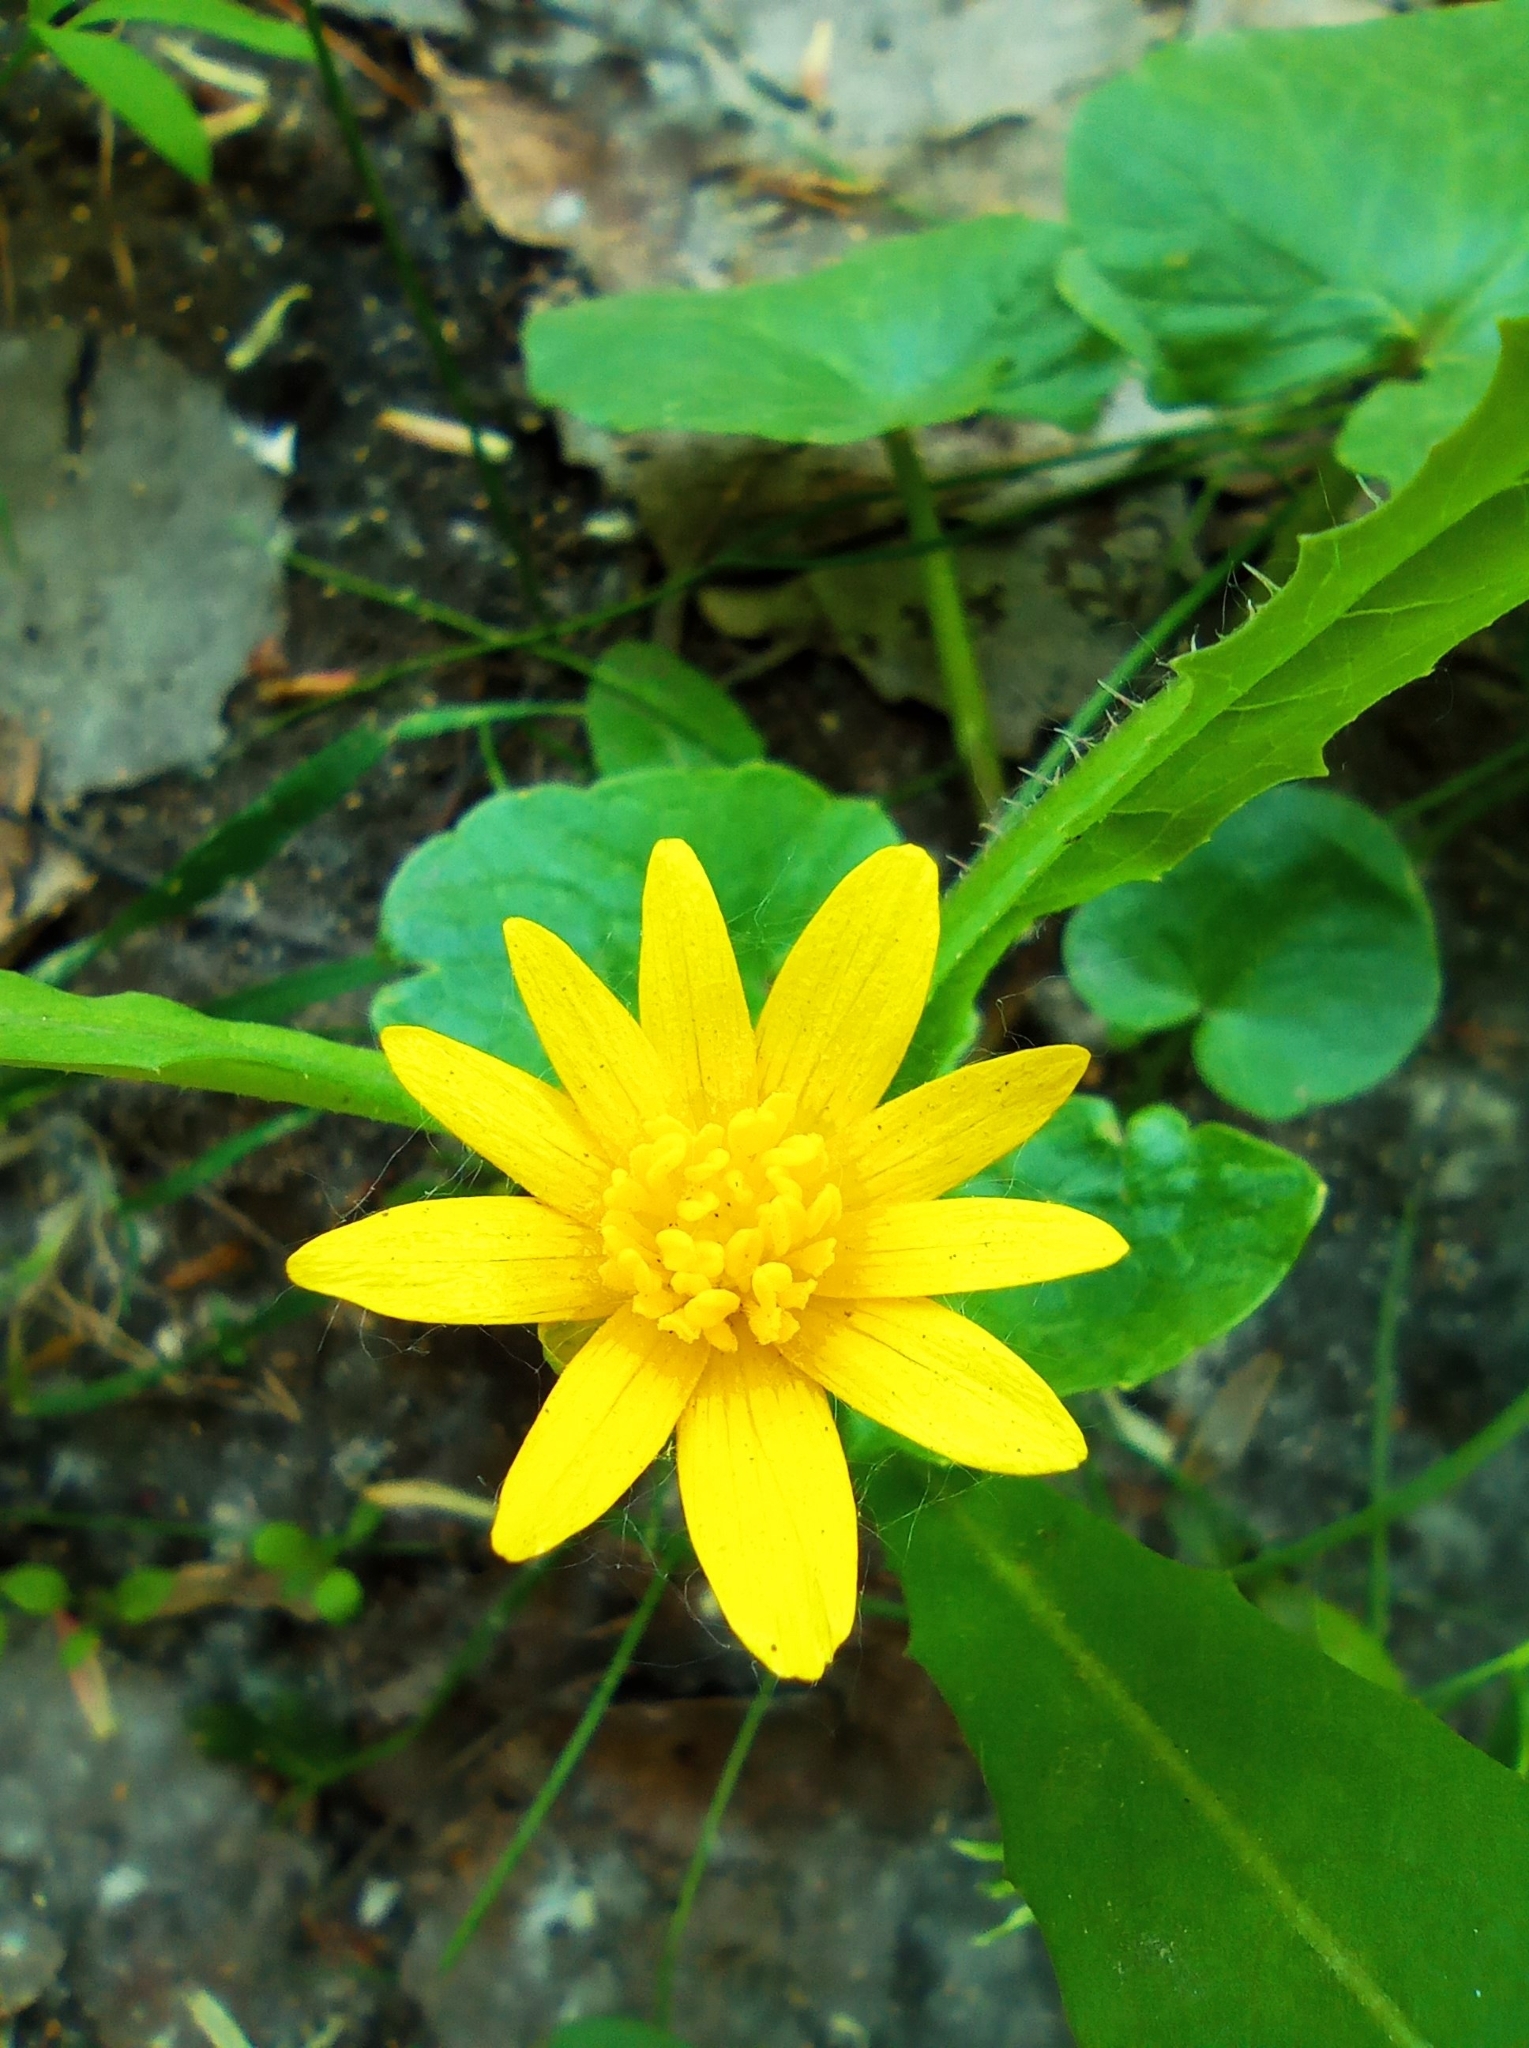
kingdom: Plantae
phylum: Tracheophyta
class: Magnoliopsida
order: Ranunculales
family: Ranunculaceae
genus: Ficaria
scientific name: Ficaria verna
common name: Lesser celandine
